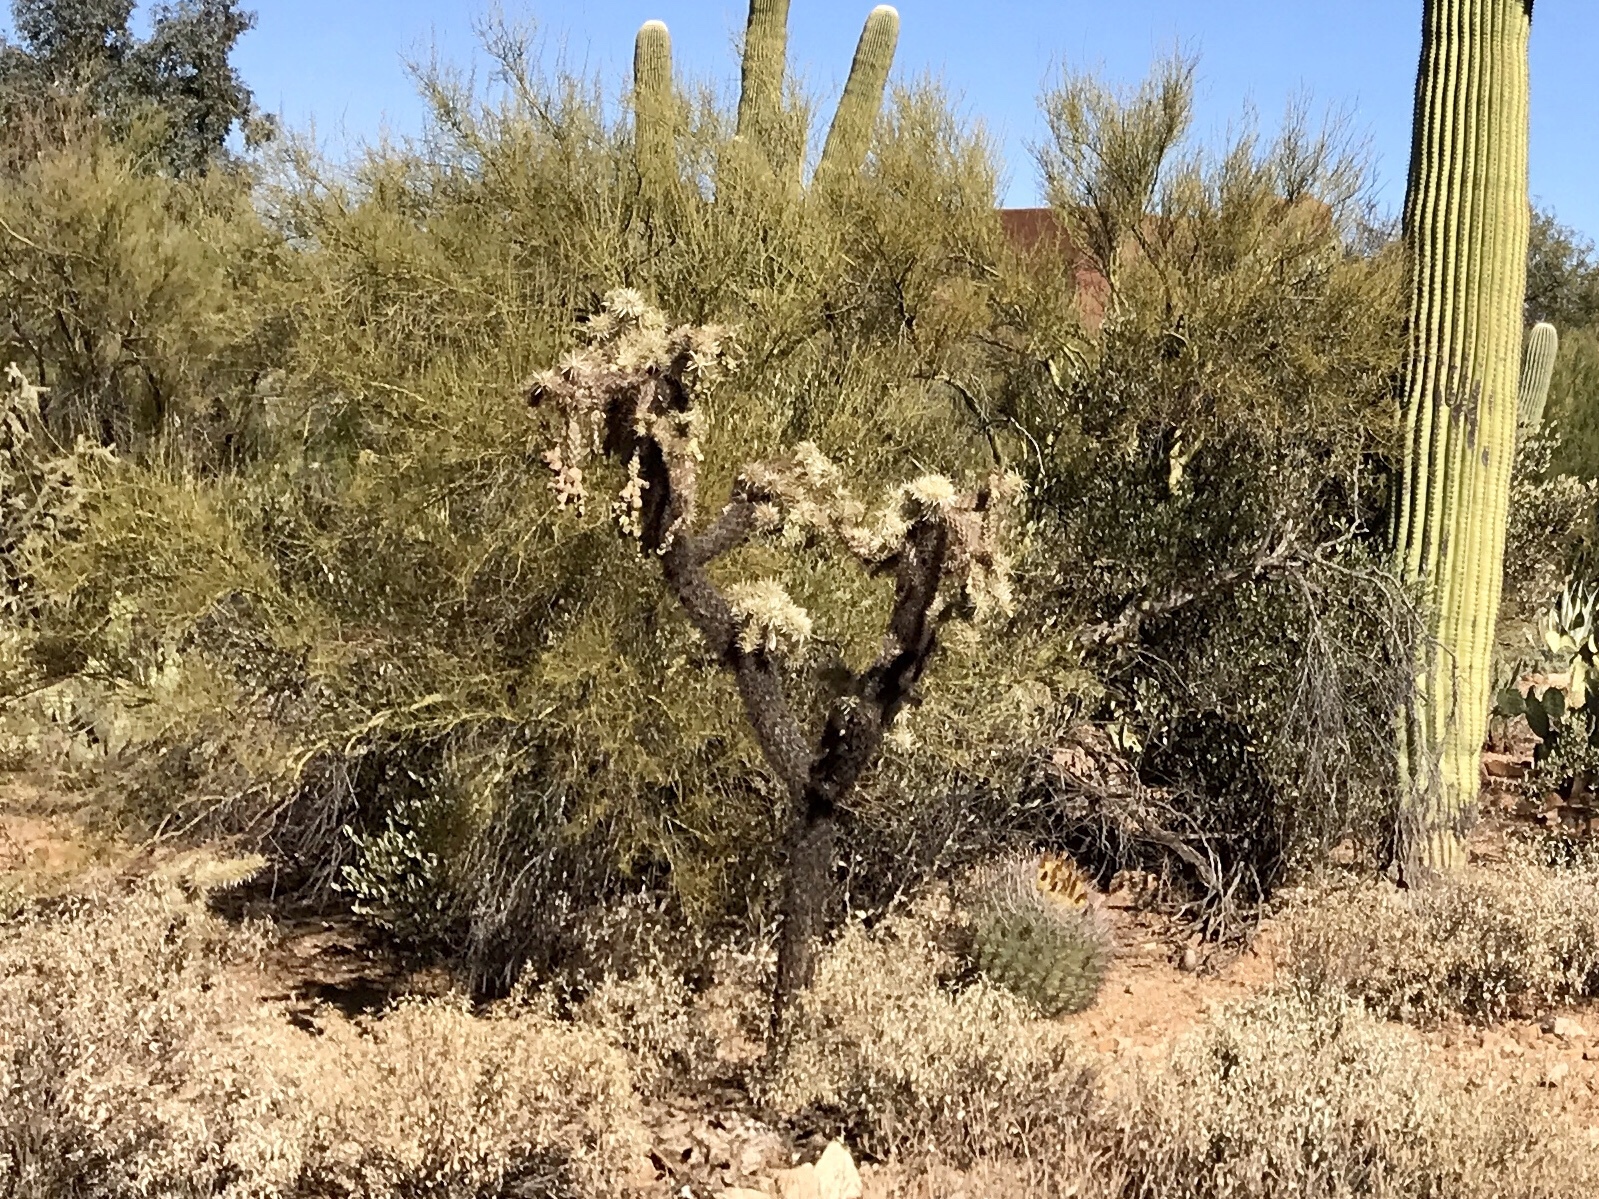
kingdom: Plantae
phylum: Tracheophyta
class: Magnoliopsida
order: Caryophyllales
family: Cactaceae
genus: Carnegiea
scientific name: Carnegiea gigantea
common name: Saguaro
